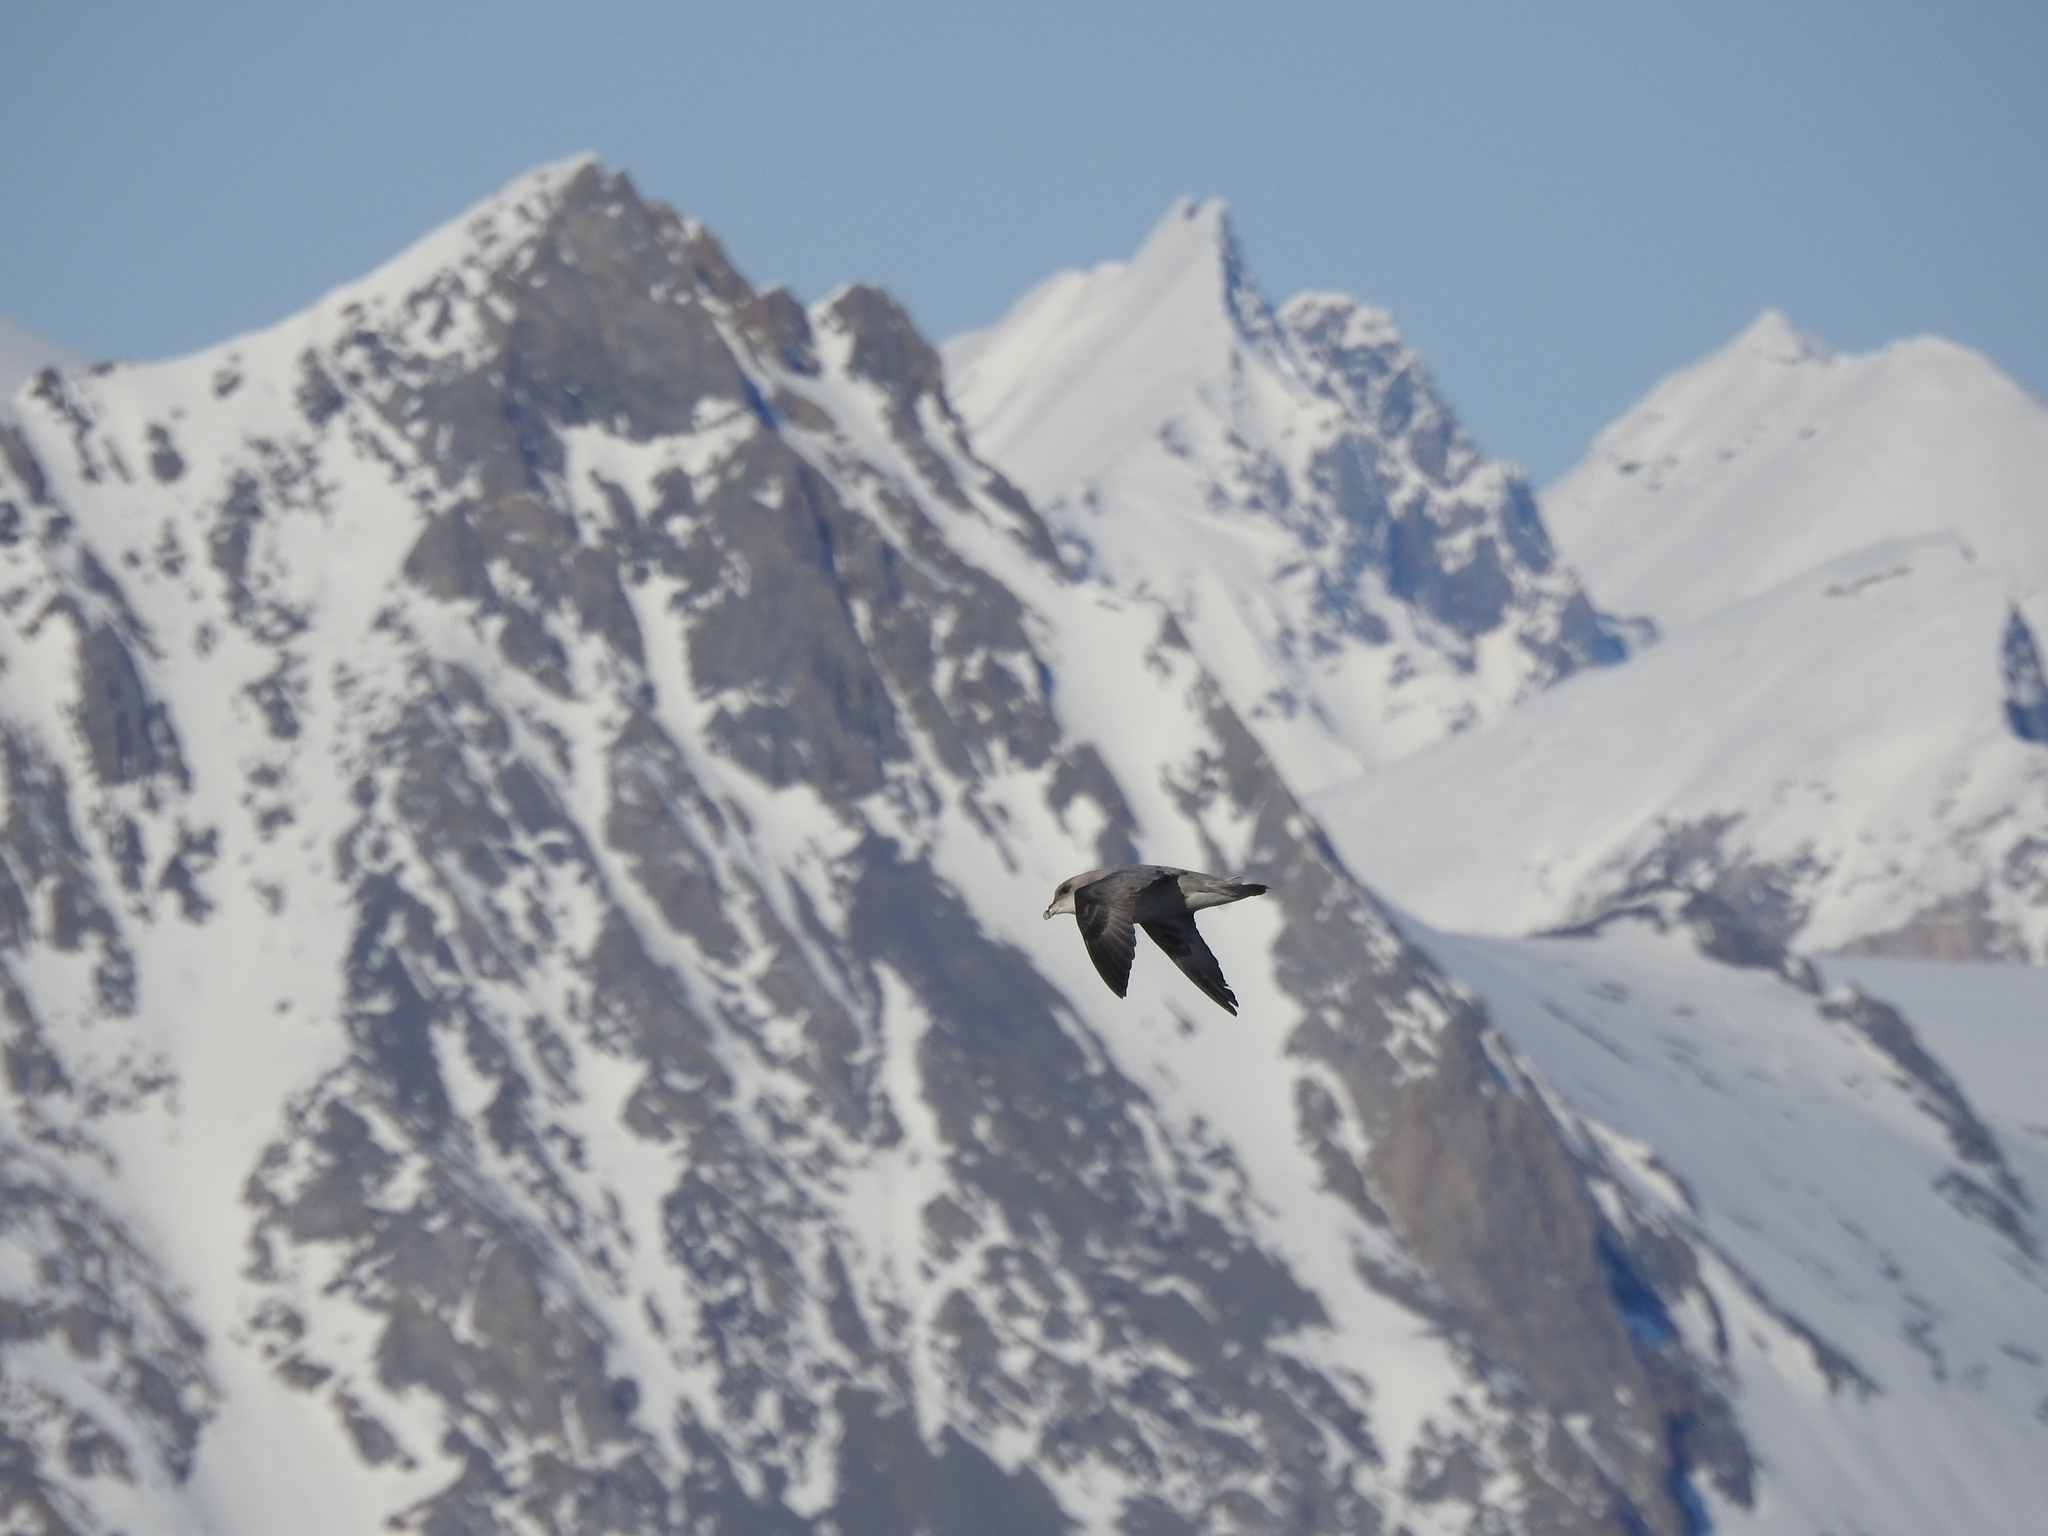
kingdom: Animalia
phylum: Chordata
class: Aves
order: Procellariiformes
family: Procellariidae
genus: Fulmarus
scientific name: Fulmarus glacialis
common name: Northern fulmar
